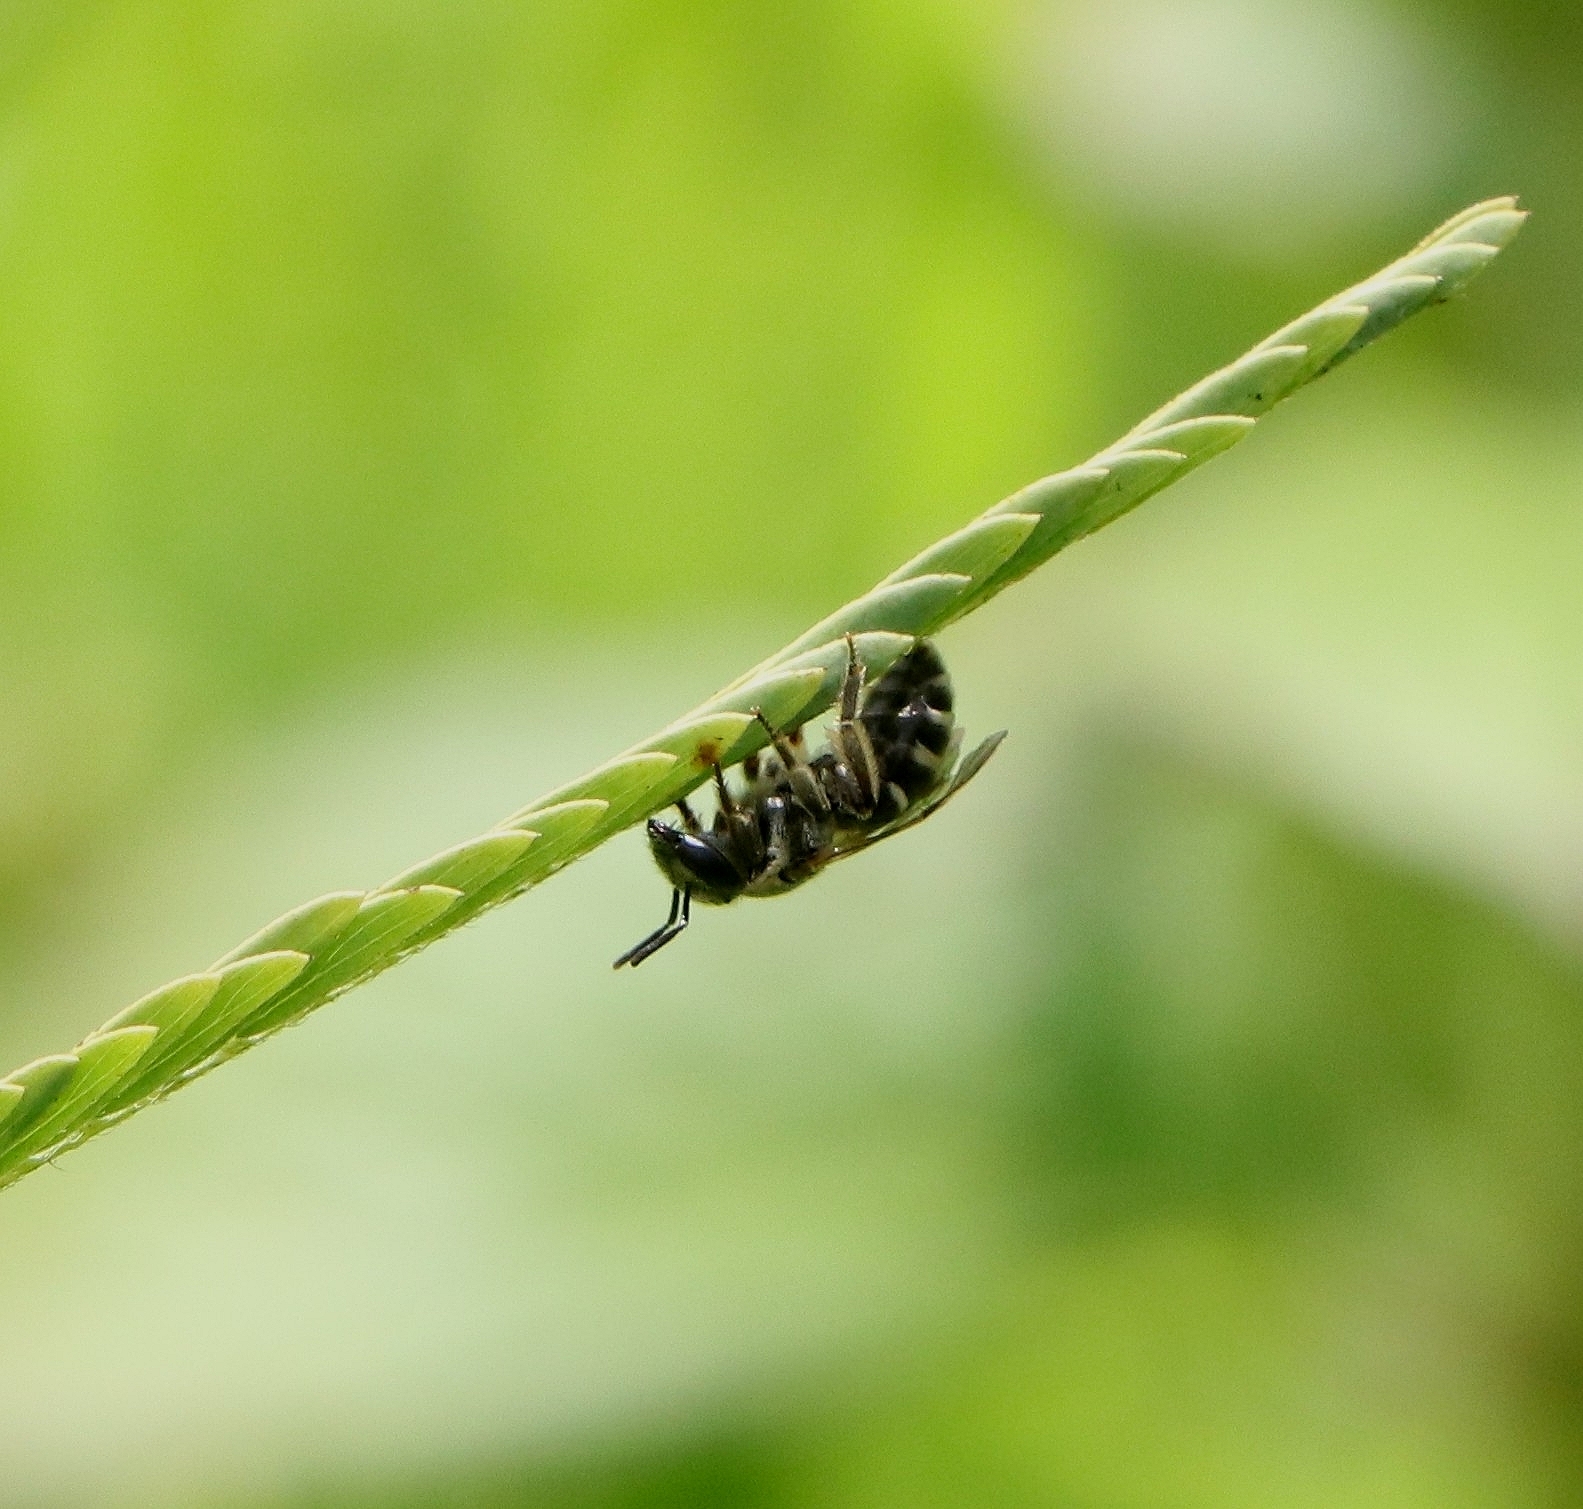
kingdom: Animalia
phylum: Arthropoda
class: Insecta
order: Hymenoptera
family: Halictidae
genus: Nomia
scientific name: Nomia
